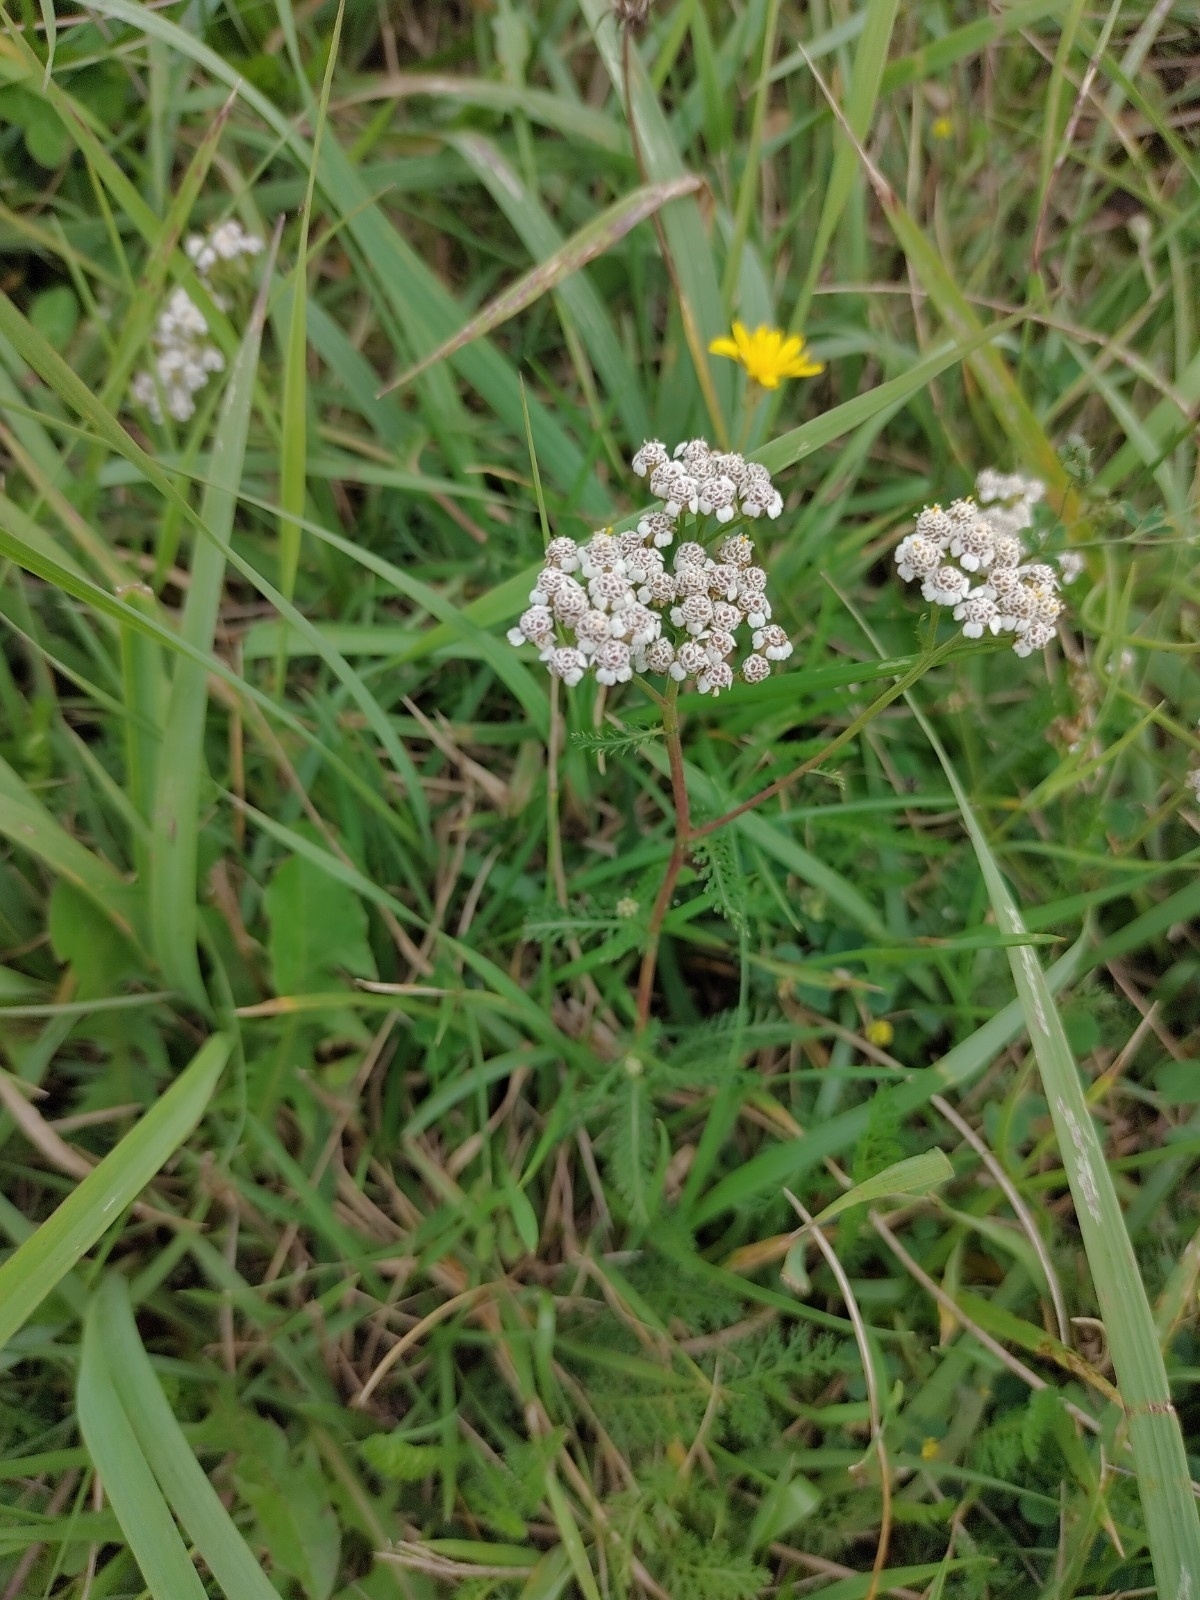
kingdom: Plantae
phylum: Tracheophyta
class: Magnoliopsida
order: Asterales
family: Asteraceae
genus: Achillea
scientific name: Achillea millefolium
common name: Yarrow
